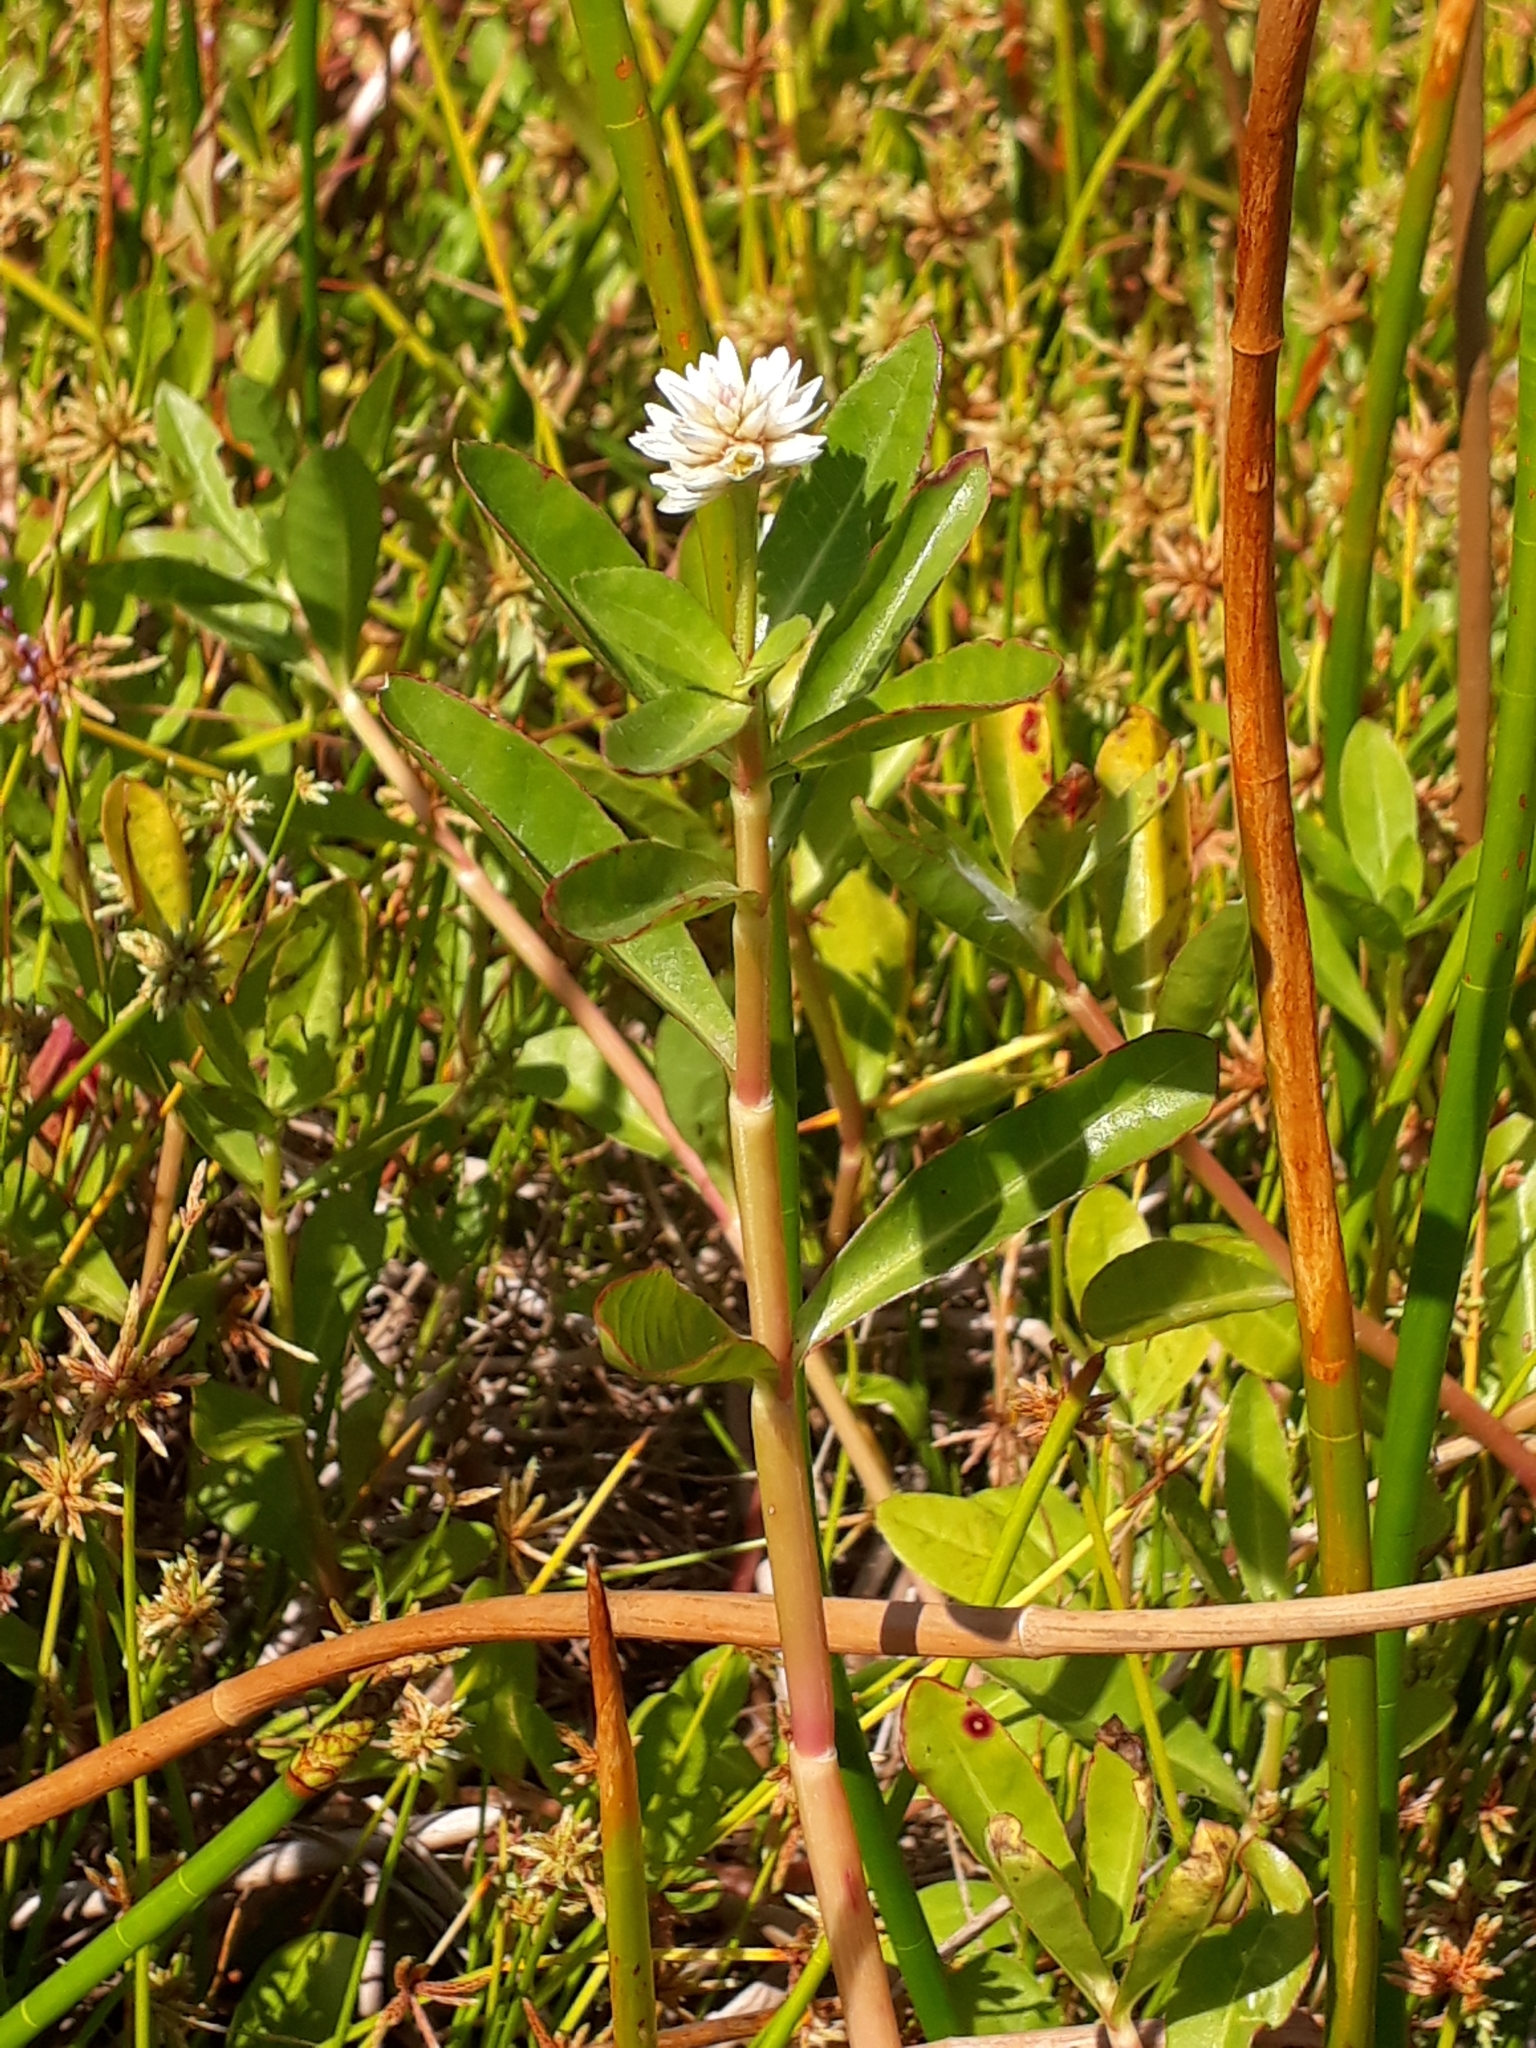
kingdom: Plantae
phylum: Tracheophyta
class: Magnoliopsida
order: Caryophyllales
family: Amaranthaceae
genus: Alternanthera
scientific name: Alternanthera philoxeroides
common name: Alligatorweed
